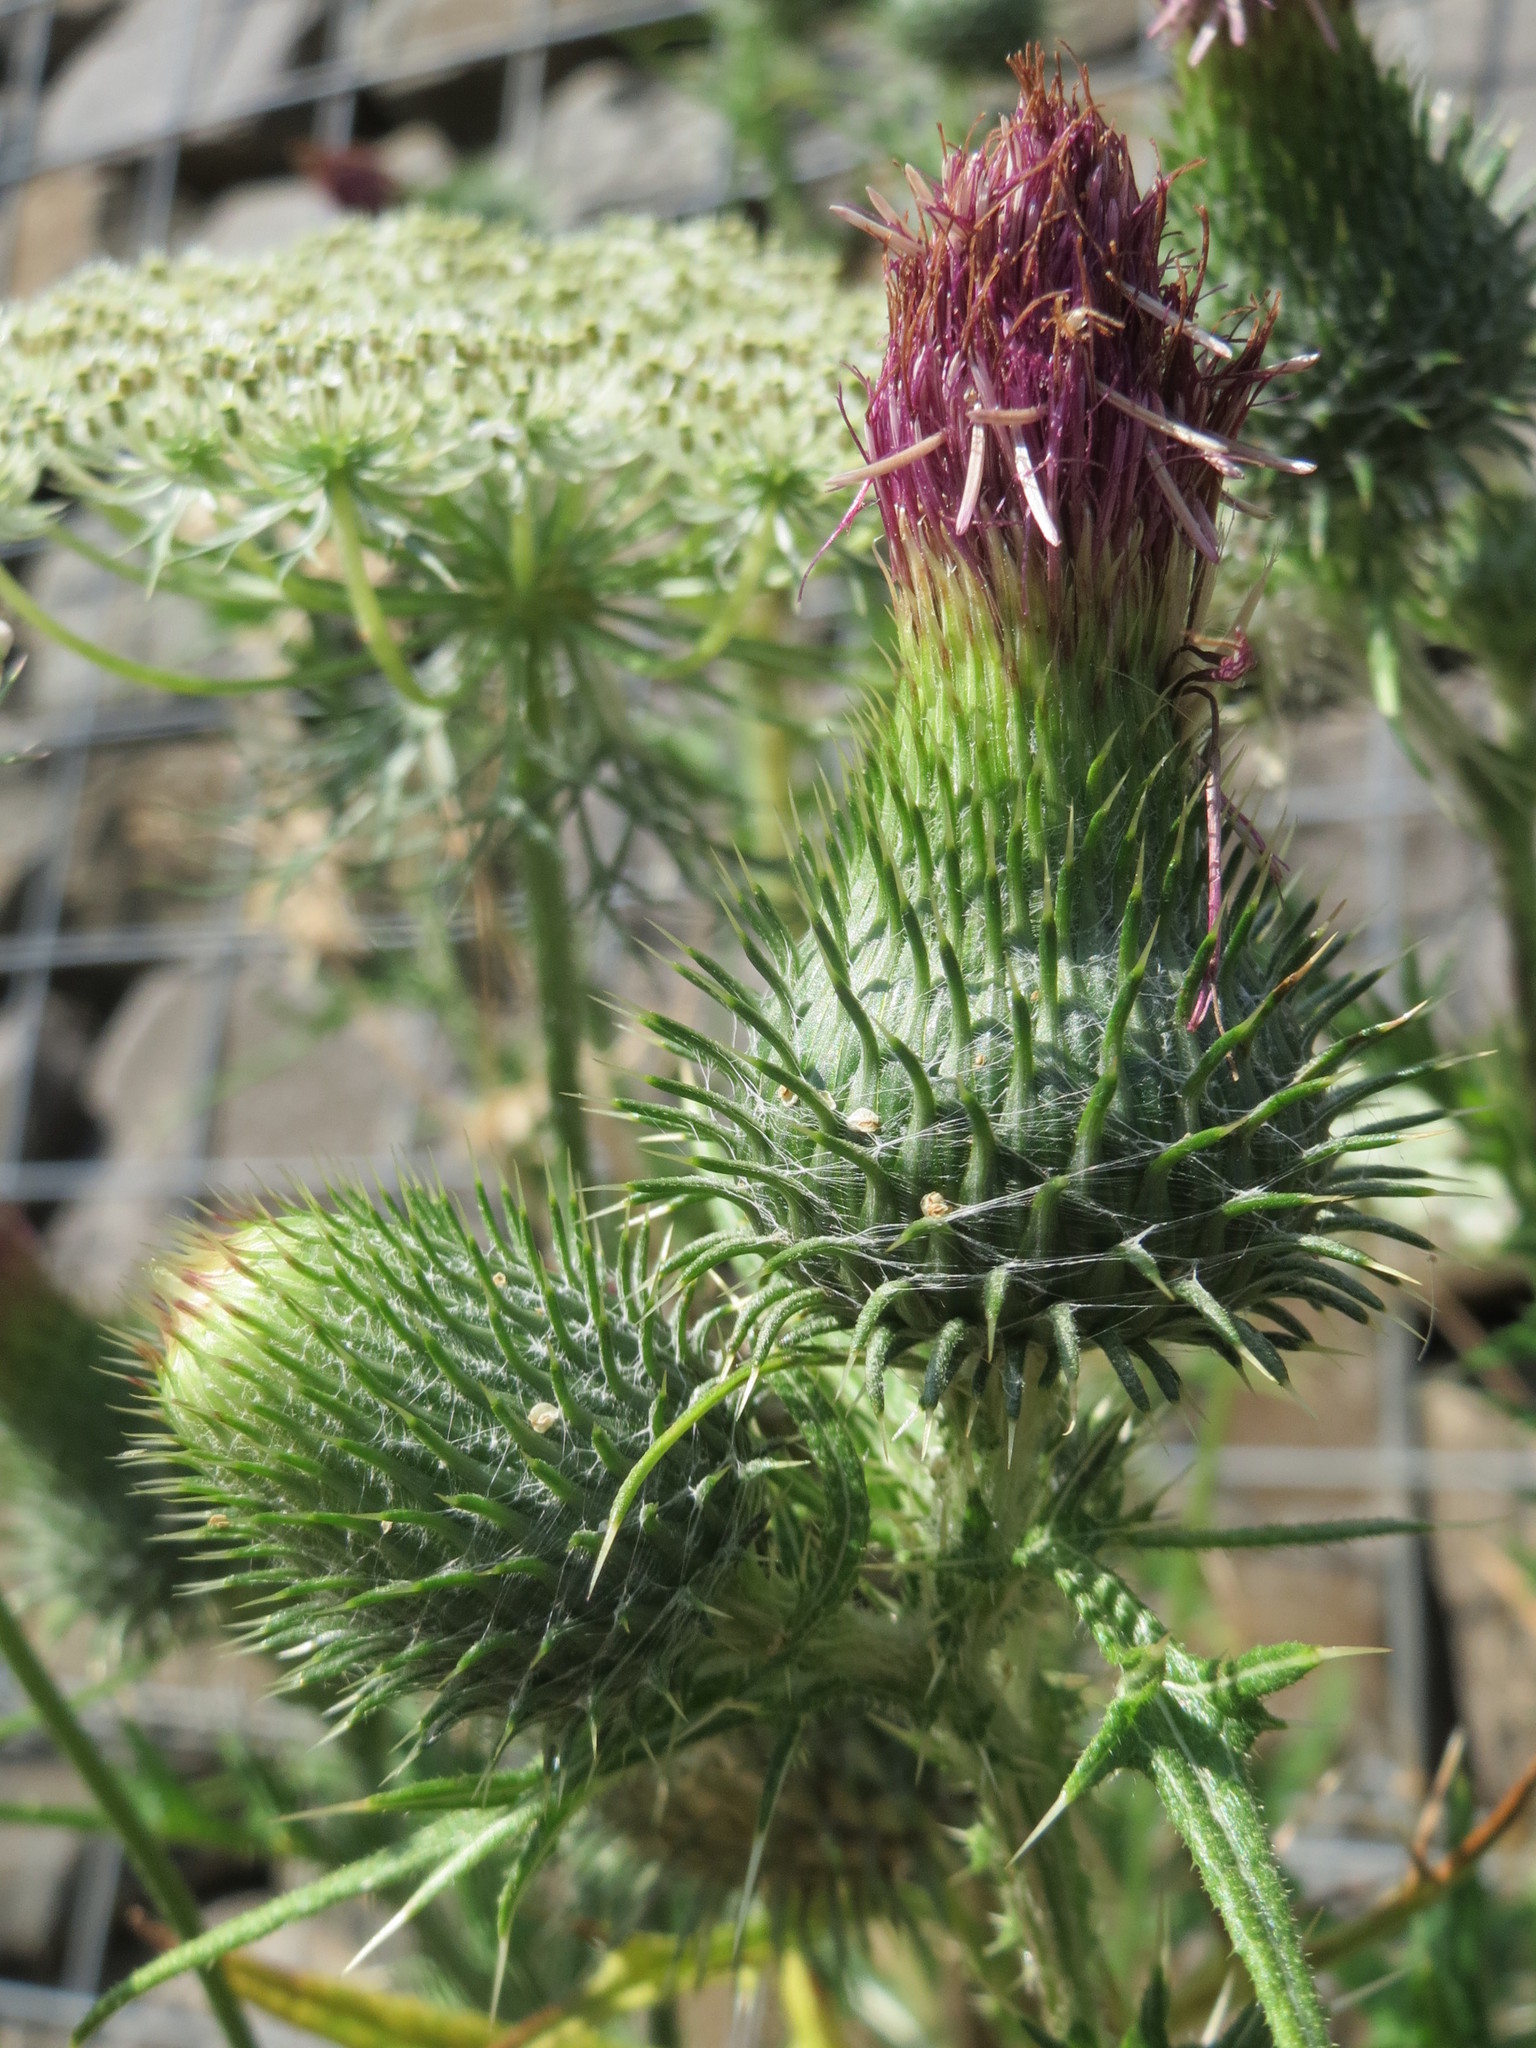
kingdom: Plantae
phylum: Tracheophyta
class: Magnoliopsida
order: Asterales
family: Asteraceae
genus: Cirsium
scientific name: Cirsium vulgare
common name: Bull thistle
